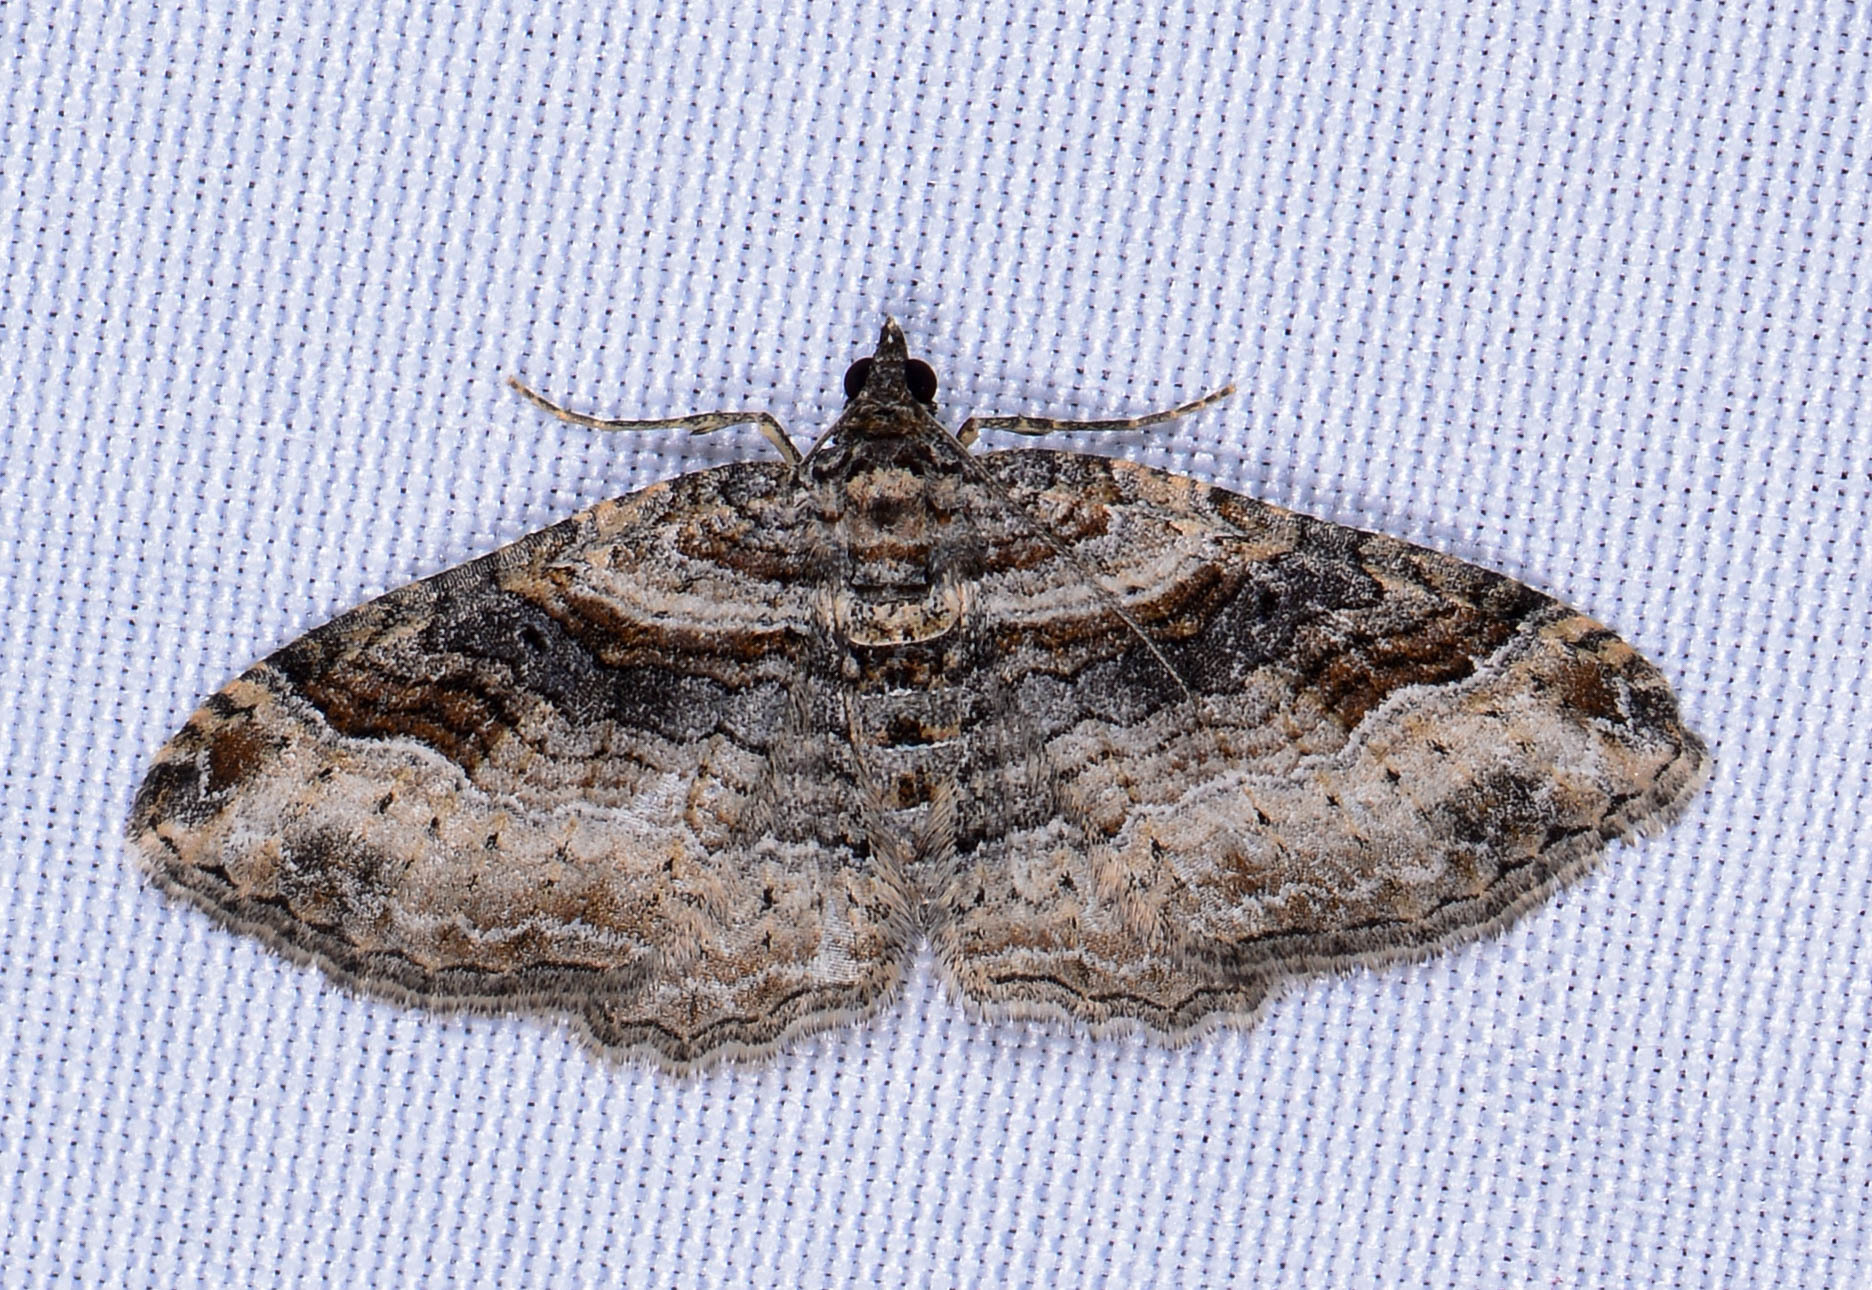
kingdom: Animalia
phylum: Arthropoda
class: Insecta
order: Lepidoptera
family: Geometridae
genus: Costaconvexa
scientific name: Costaconvexa centrostrigaria
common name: Bent-line carpet
